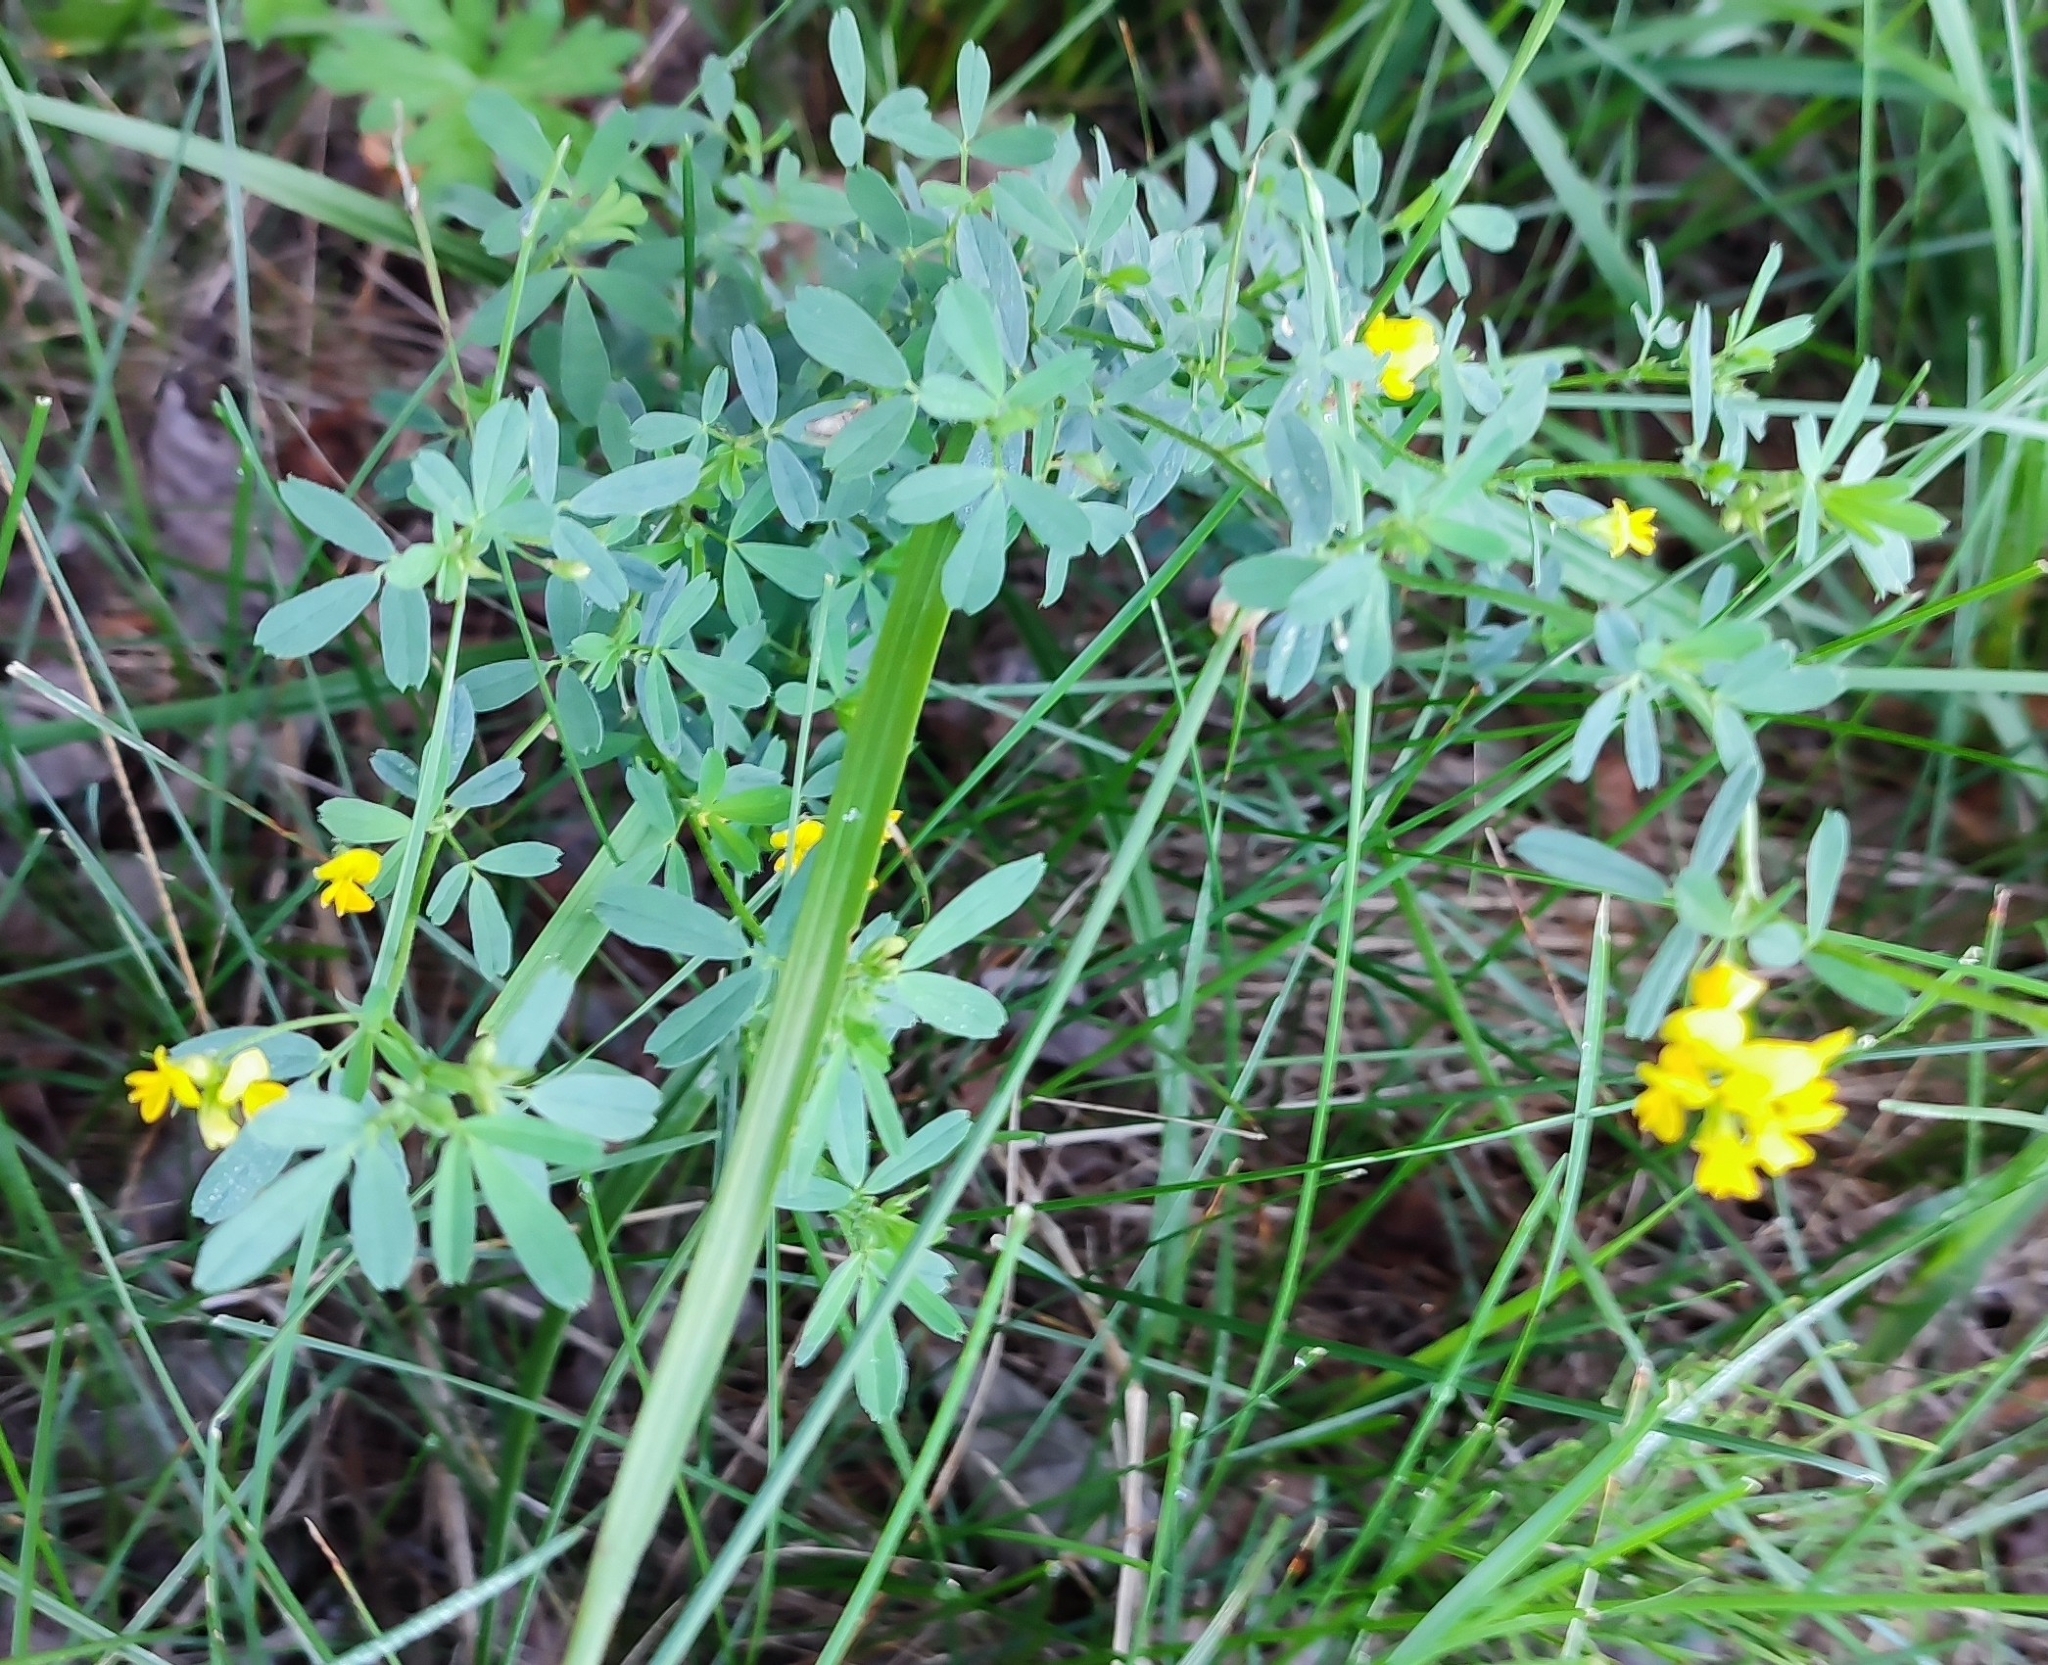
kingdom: Plantae
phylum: Tracheophyta
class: Magnoliopsida
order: Fabales
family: Fabaceae
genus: Medicago
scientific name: Medicago falcata
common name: Sickle medick
